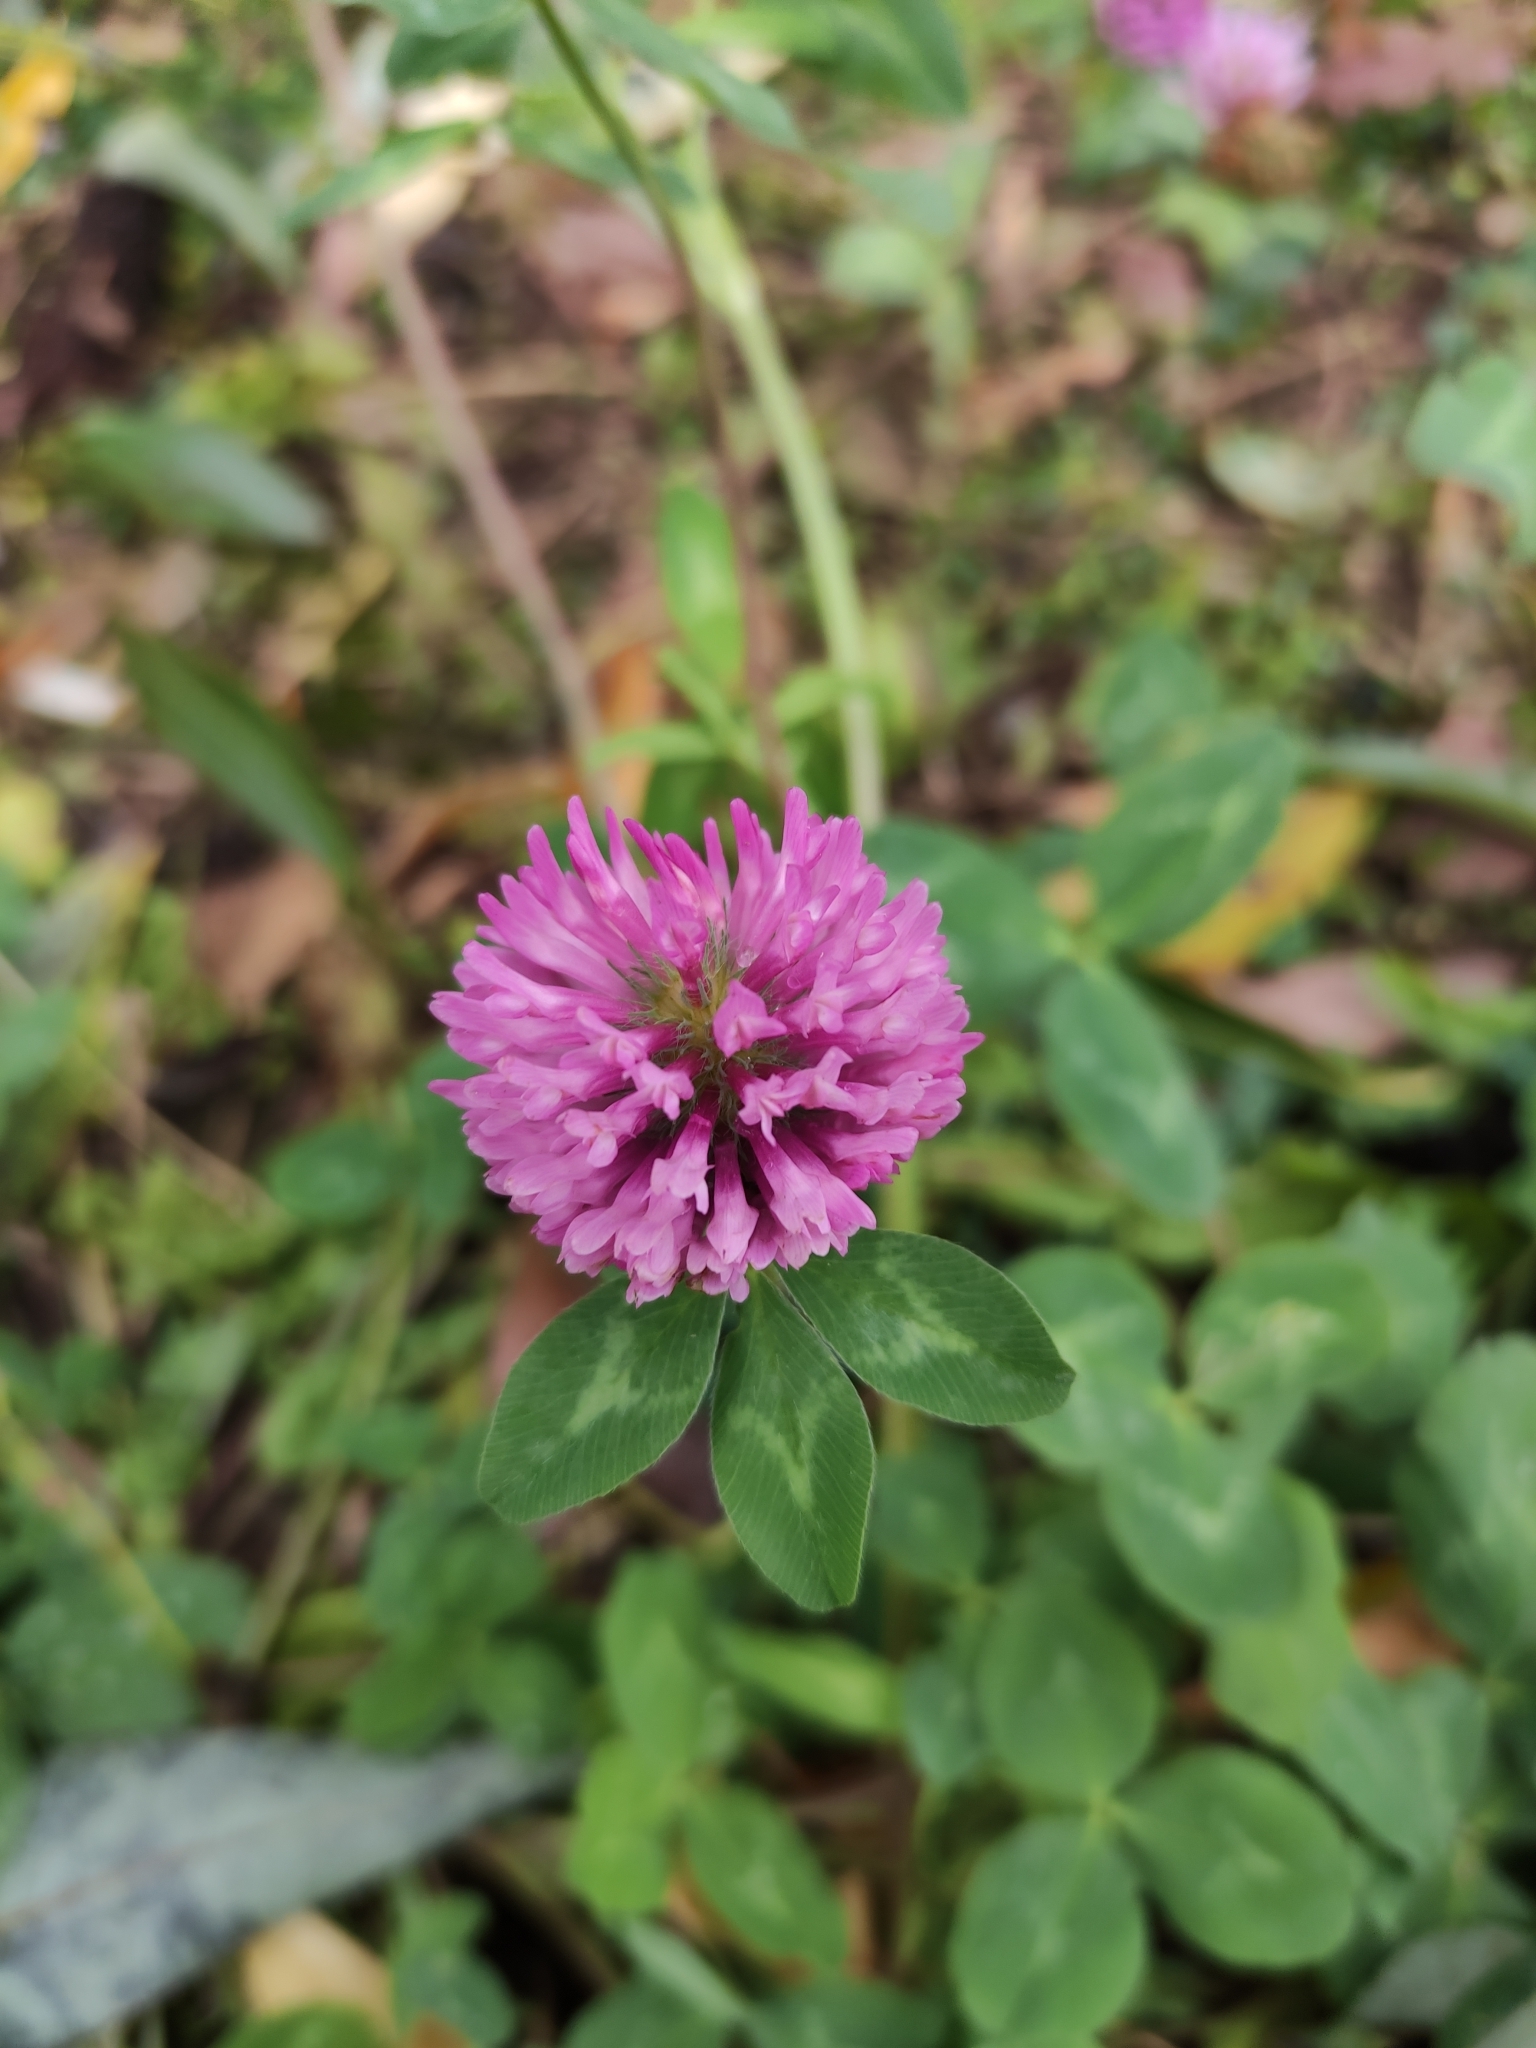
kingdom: Plantae
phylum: Tracheophyta
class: Magnoliopsida
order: Fabales
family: Fabaceae
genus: Trifolium
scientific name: Trifolium pratense
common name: Red clover
